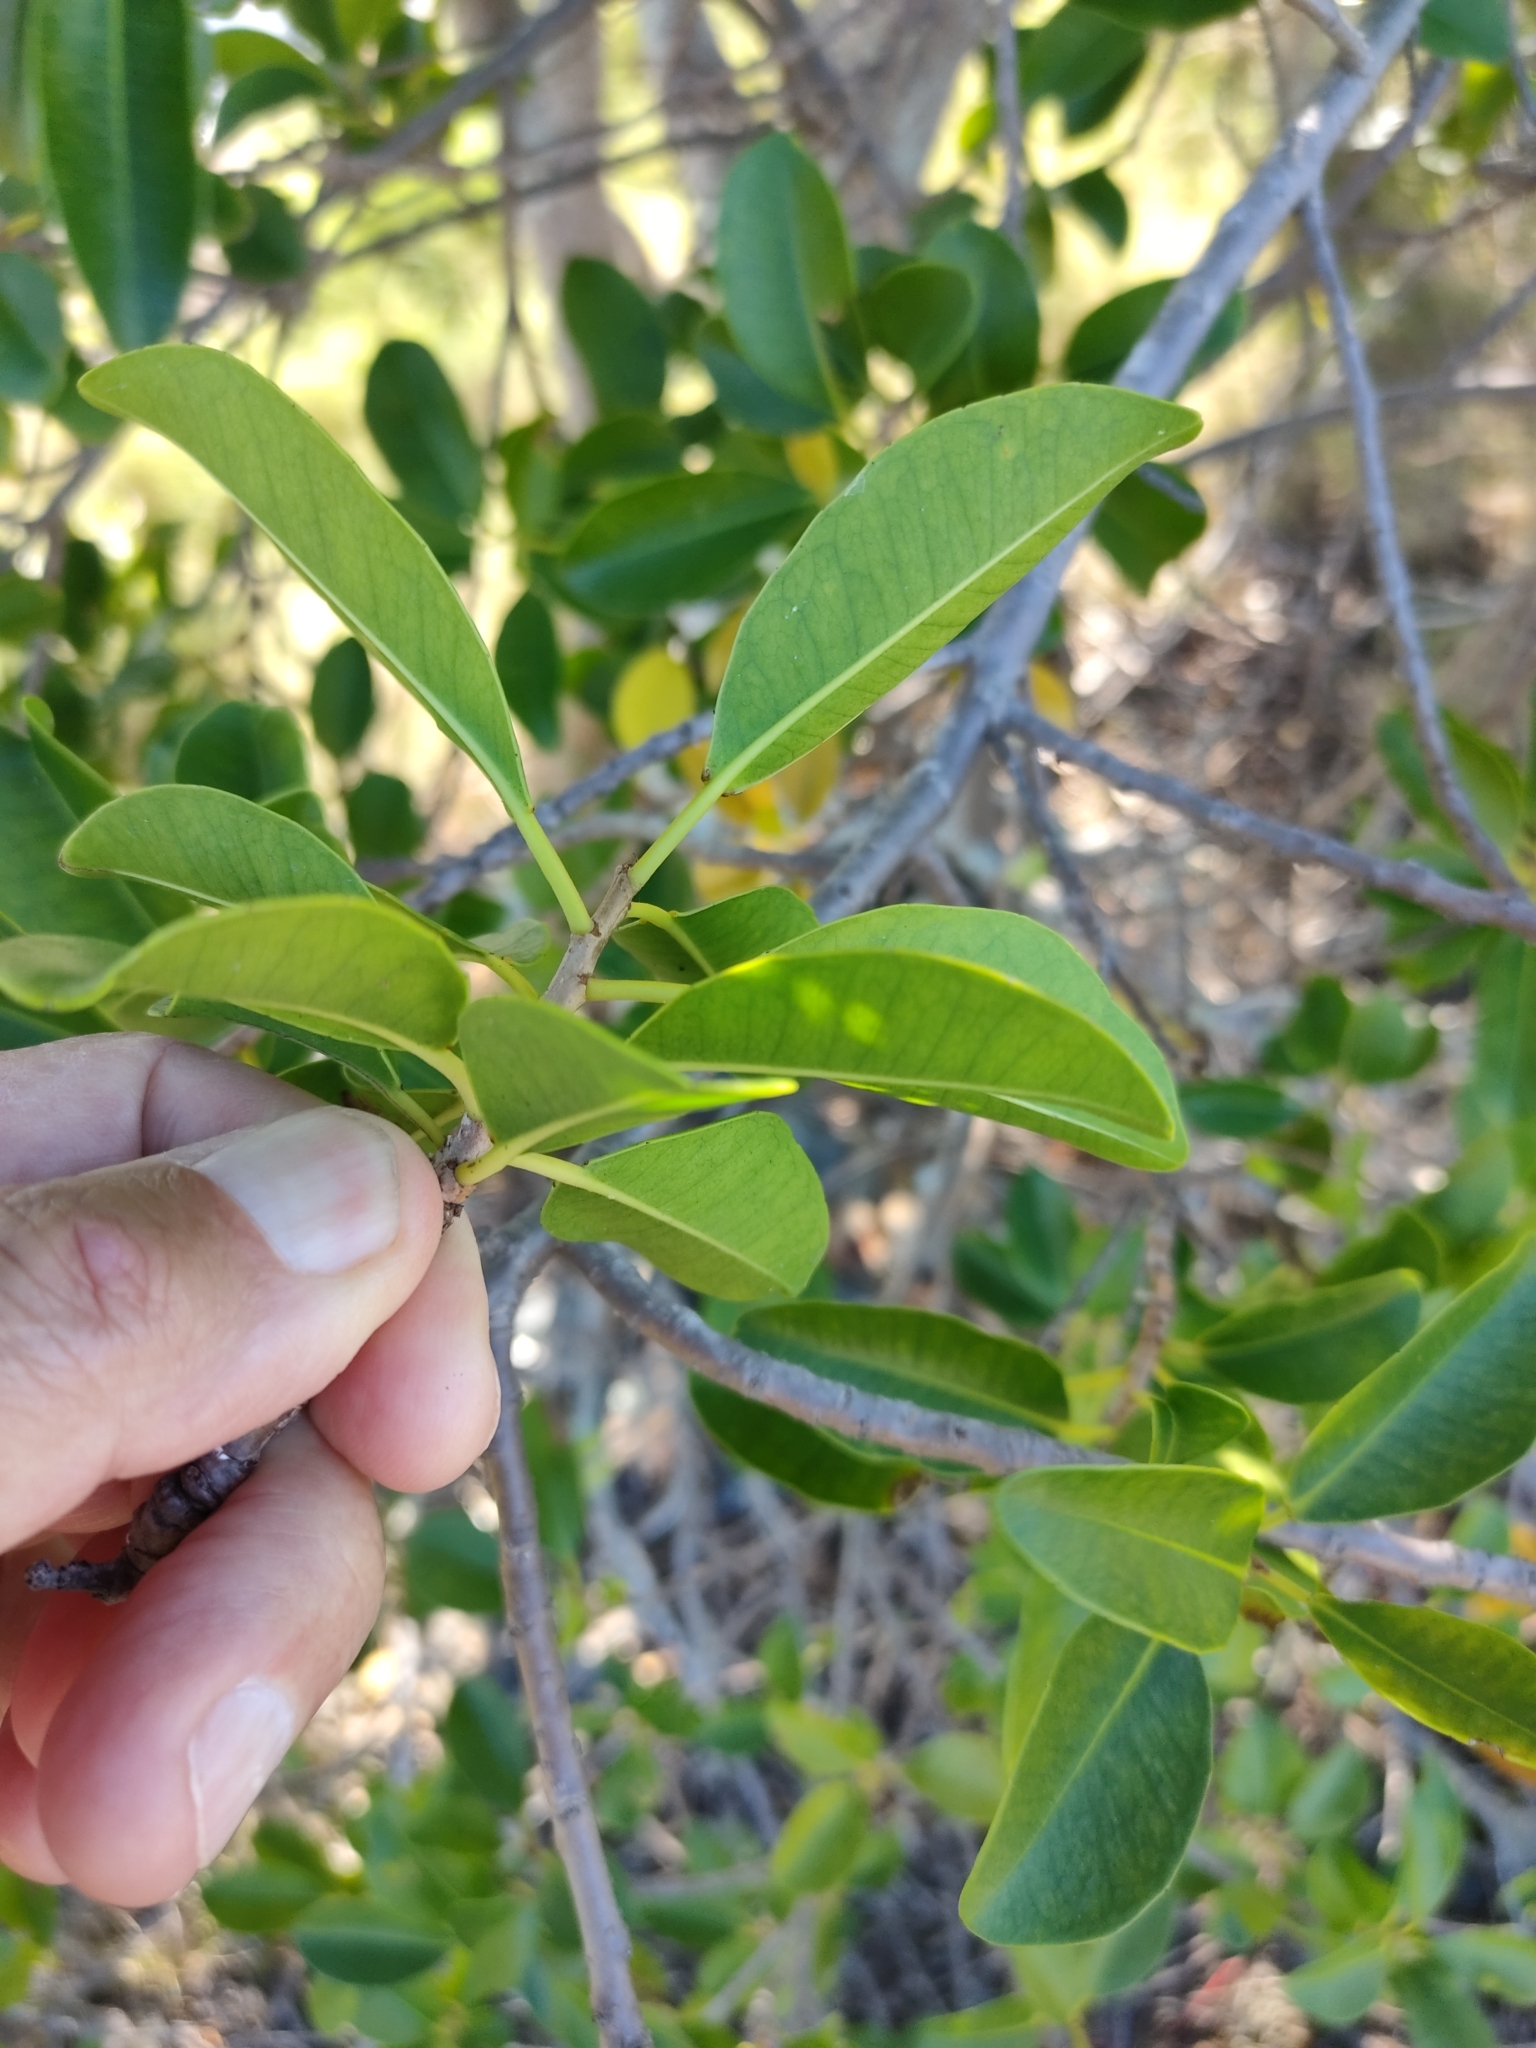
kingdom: Plantae
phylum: Tracheophyta
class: Magnoliopsida
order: Malpighiales
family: Euphorbiaceae
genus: Excoecaria
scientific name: Excoecaria agallocha
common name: River poisontree
